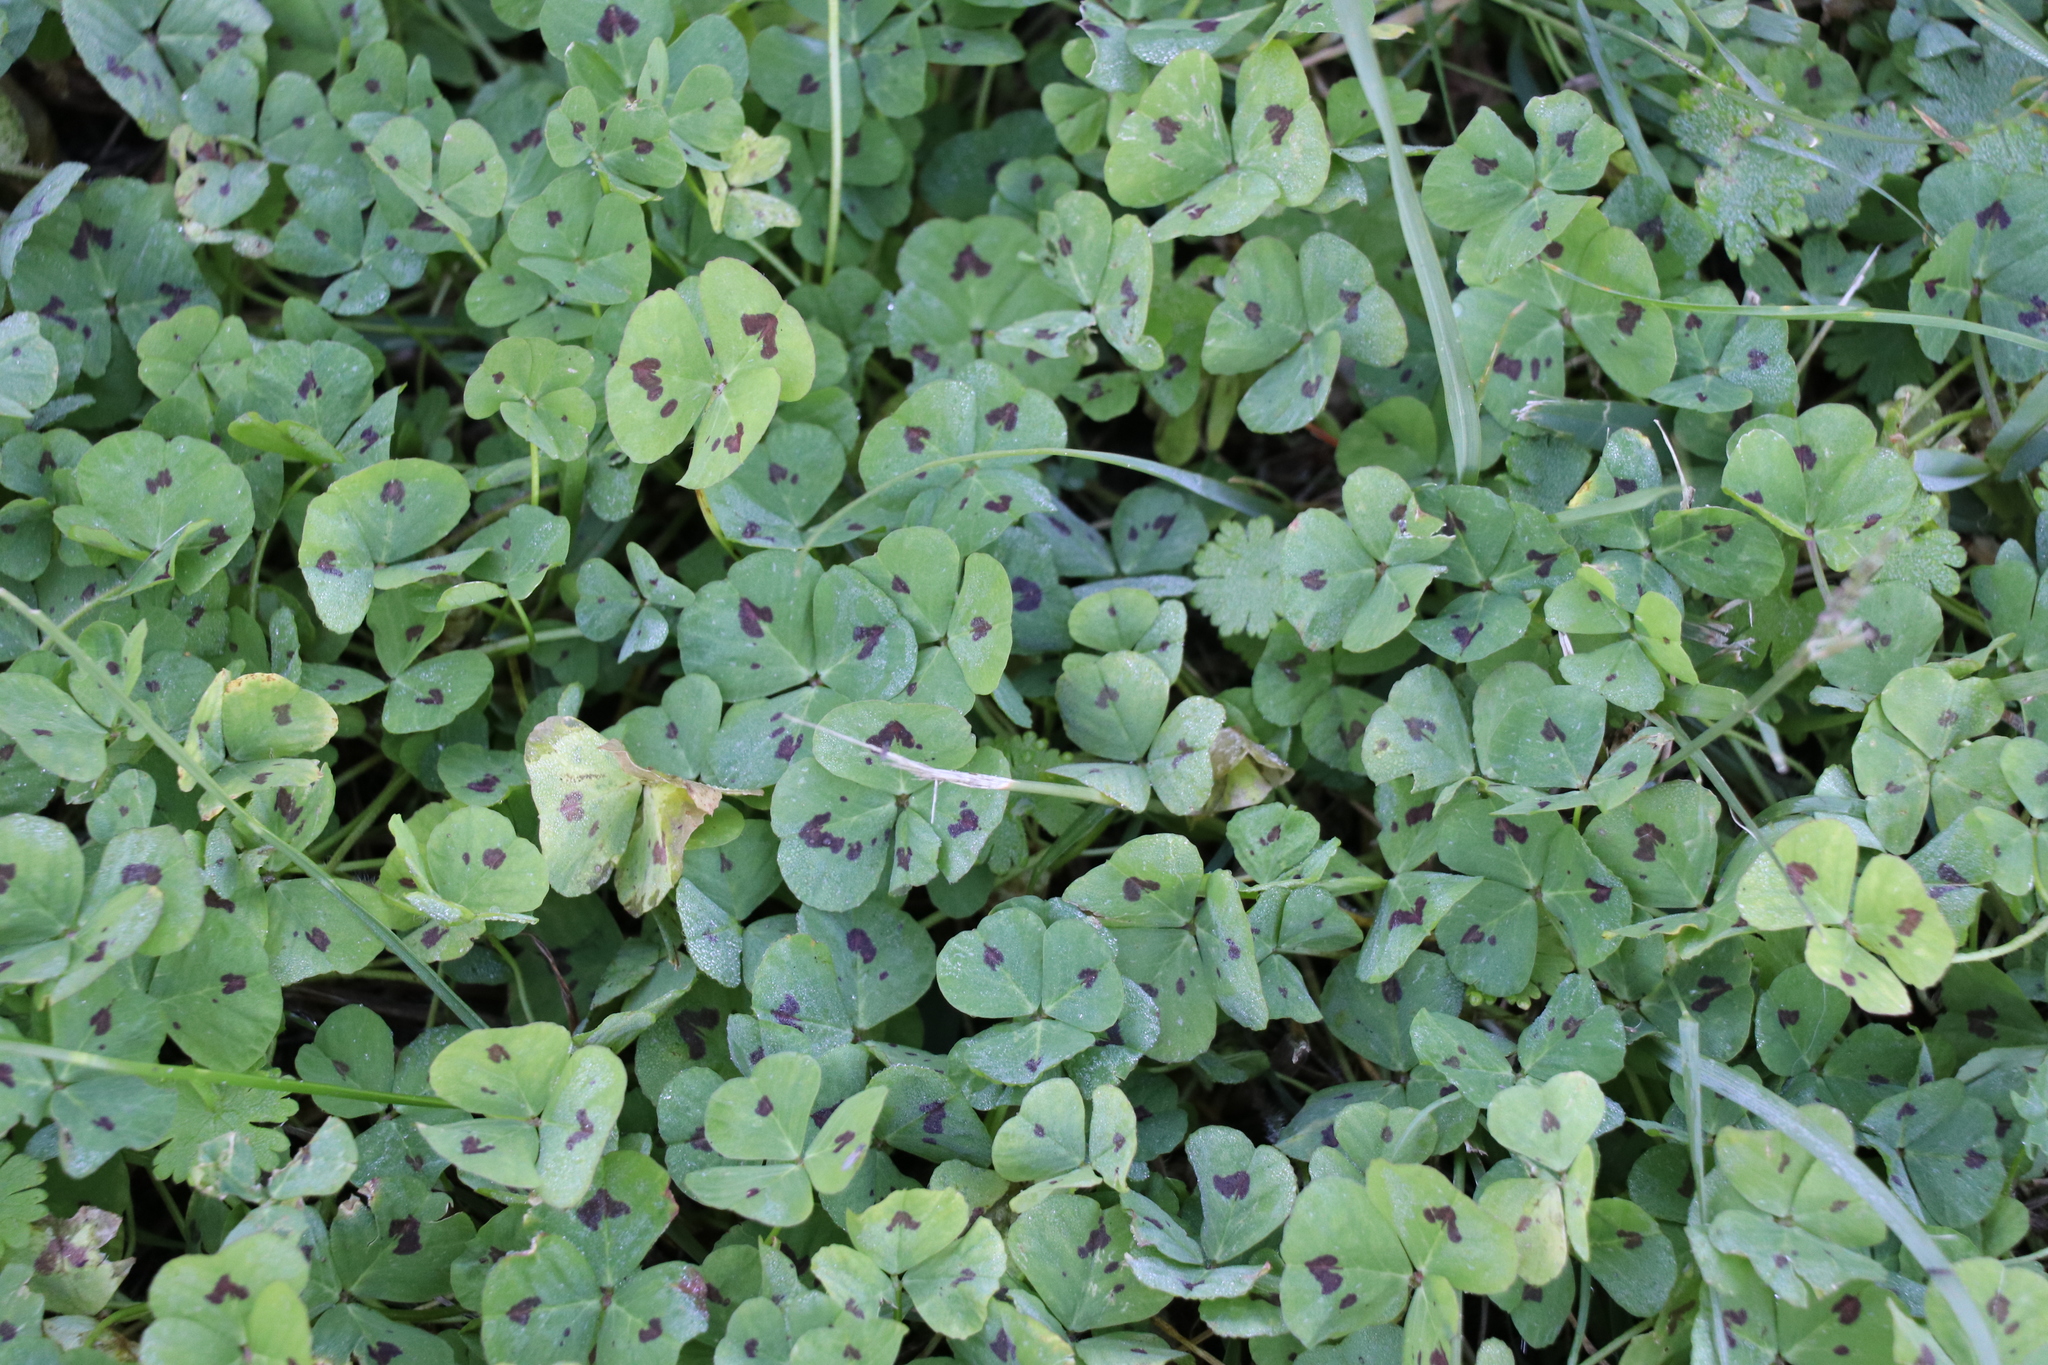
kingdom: Plantae
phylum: Tracheophyta
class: Magnoliopsida
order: Fabales
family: Fabaceae
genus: Medicago
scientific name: Medicago arabica
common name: Spotted medick
